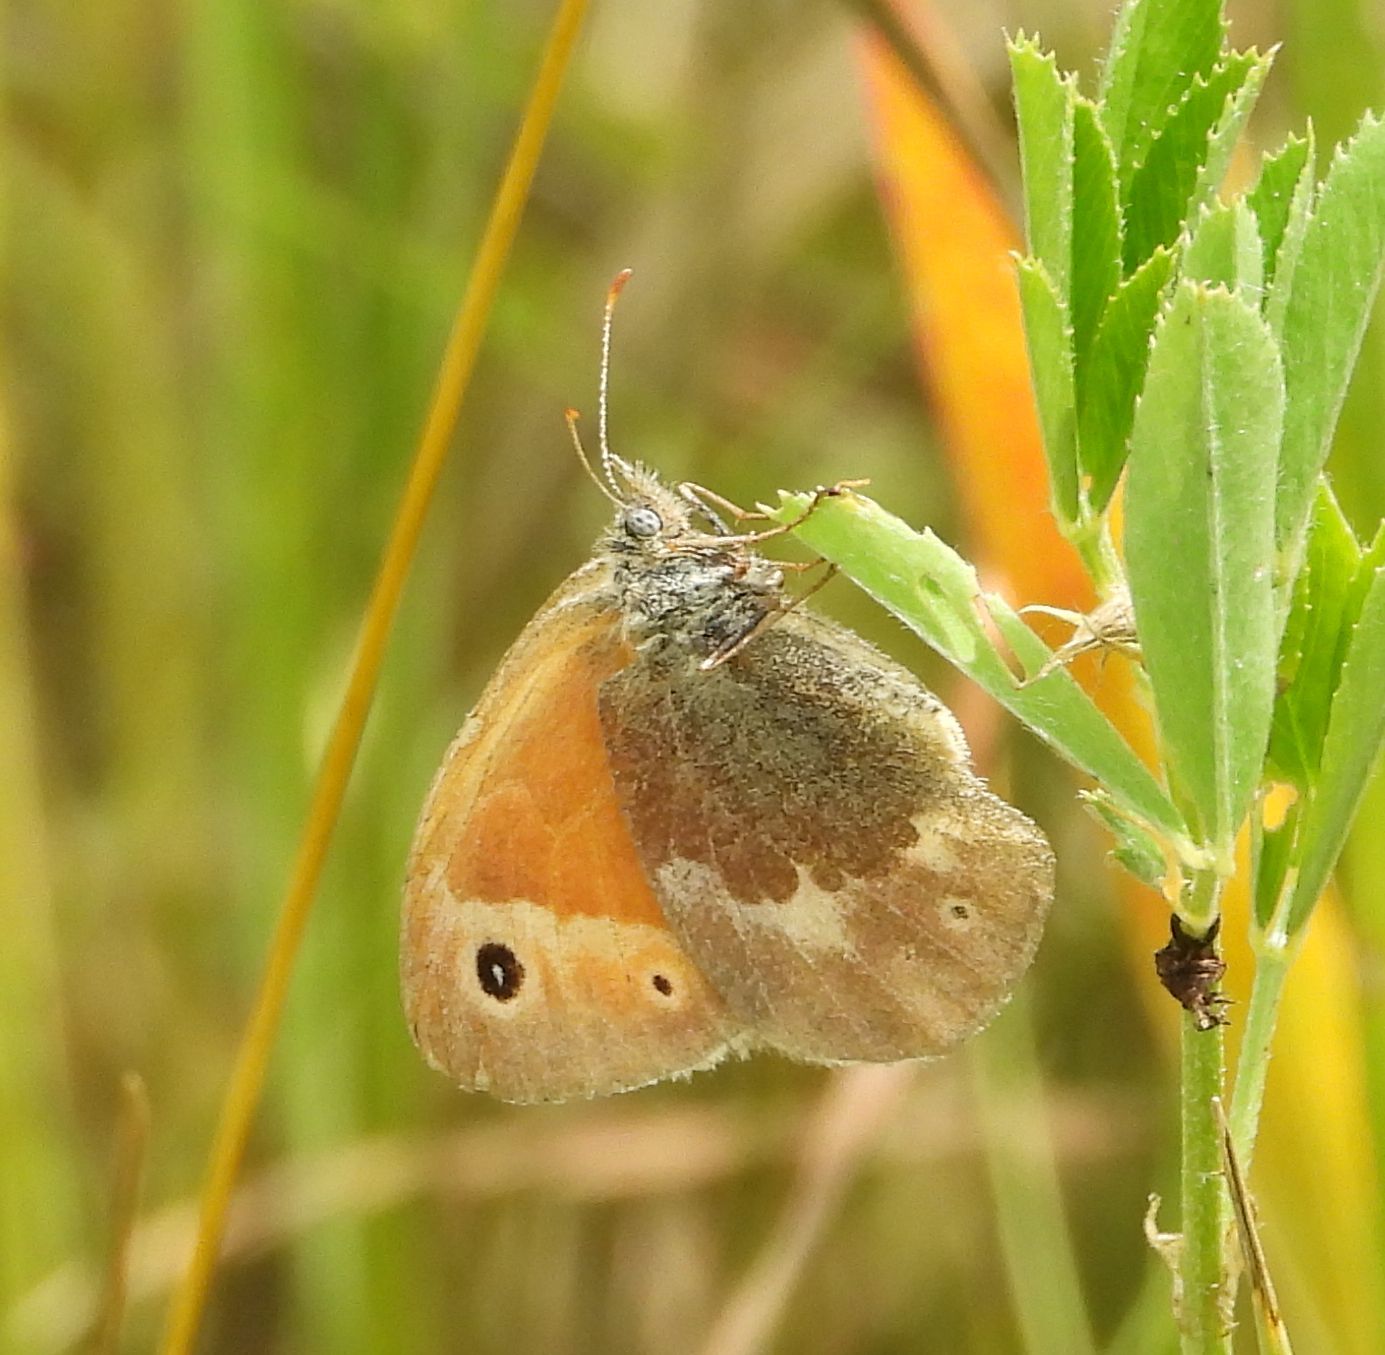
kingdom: Animalia
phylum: Arthropoda
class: Insecta
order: Lepidoptera
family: Nymphalidae
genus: Coenonympha
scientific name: Coenonympha california
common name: Common ringlet
